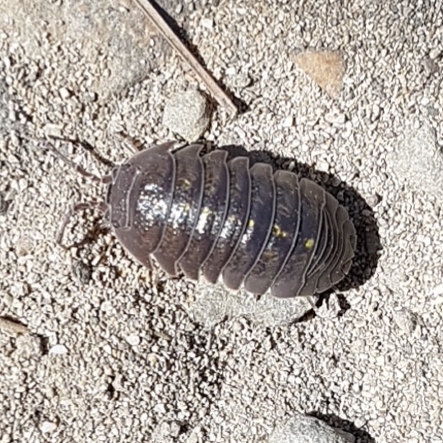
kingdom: Animalia
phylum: Arthropoda
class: Malacostraca
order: Isopoda
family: Armadillidiidae
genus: Armadillidium
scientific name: Armadillidium granulatum
